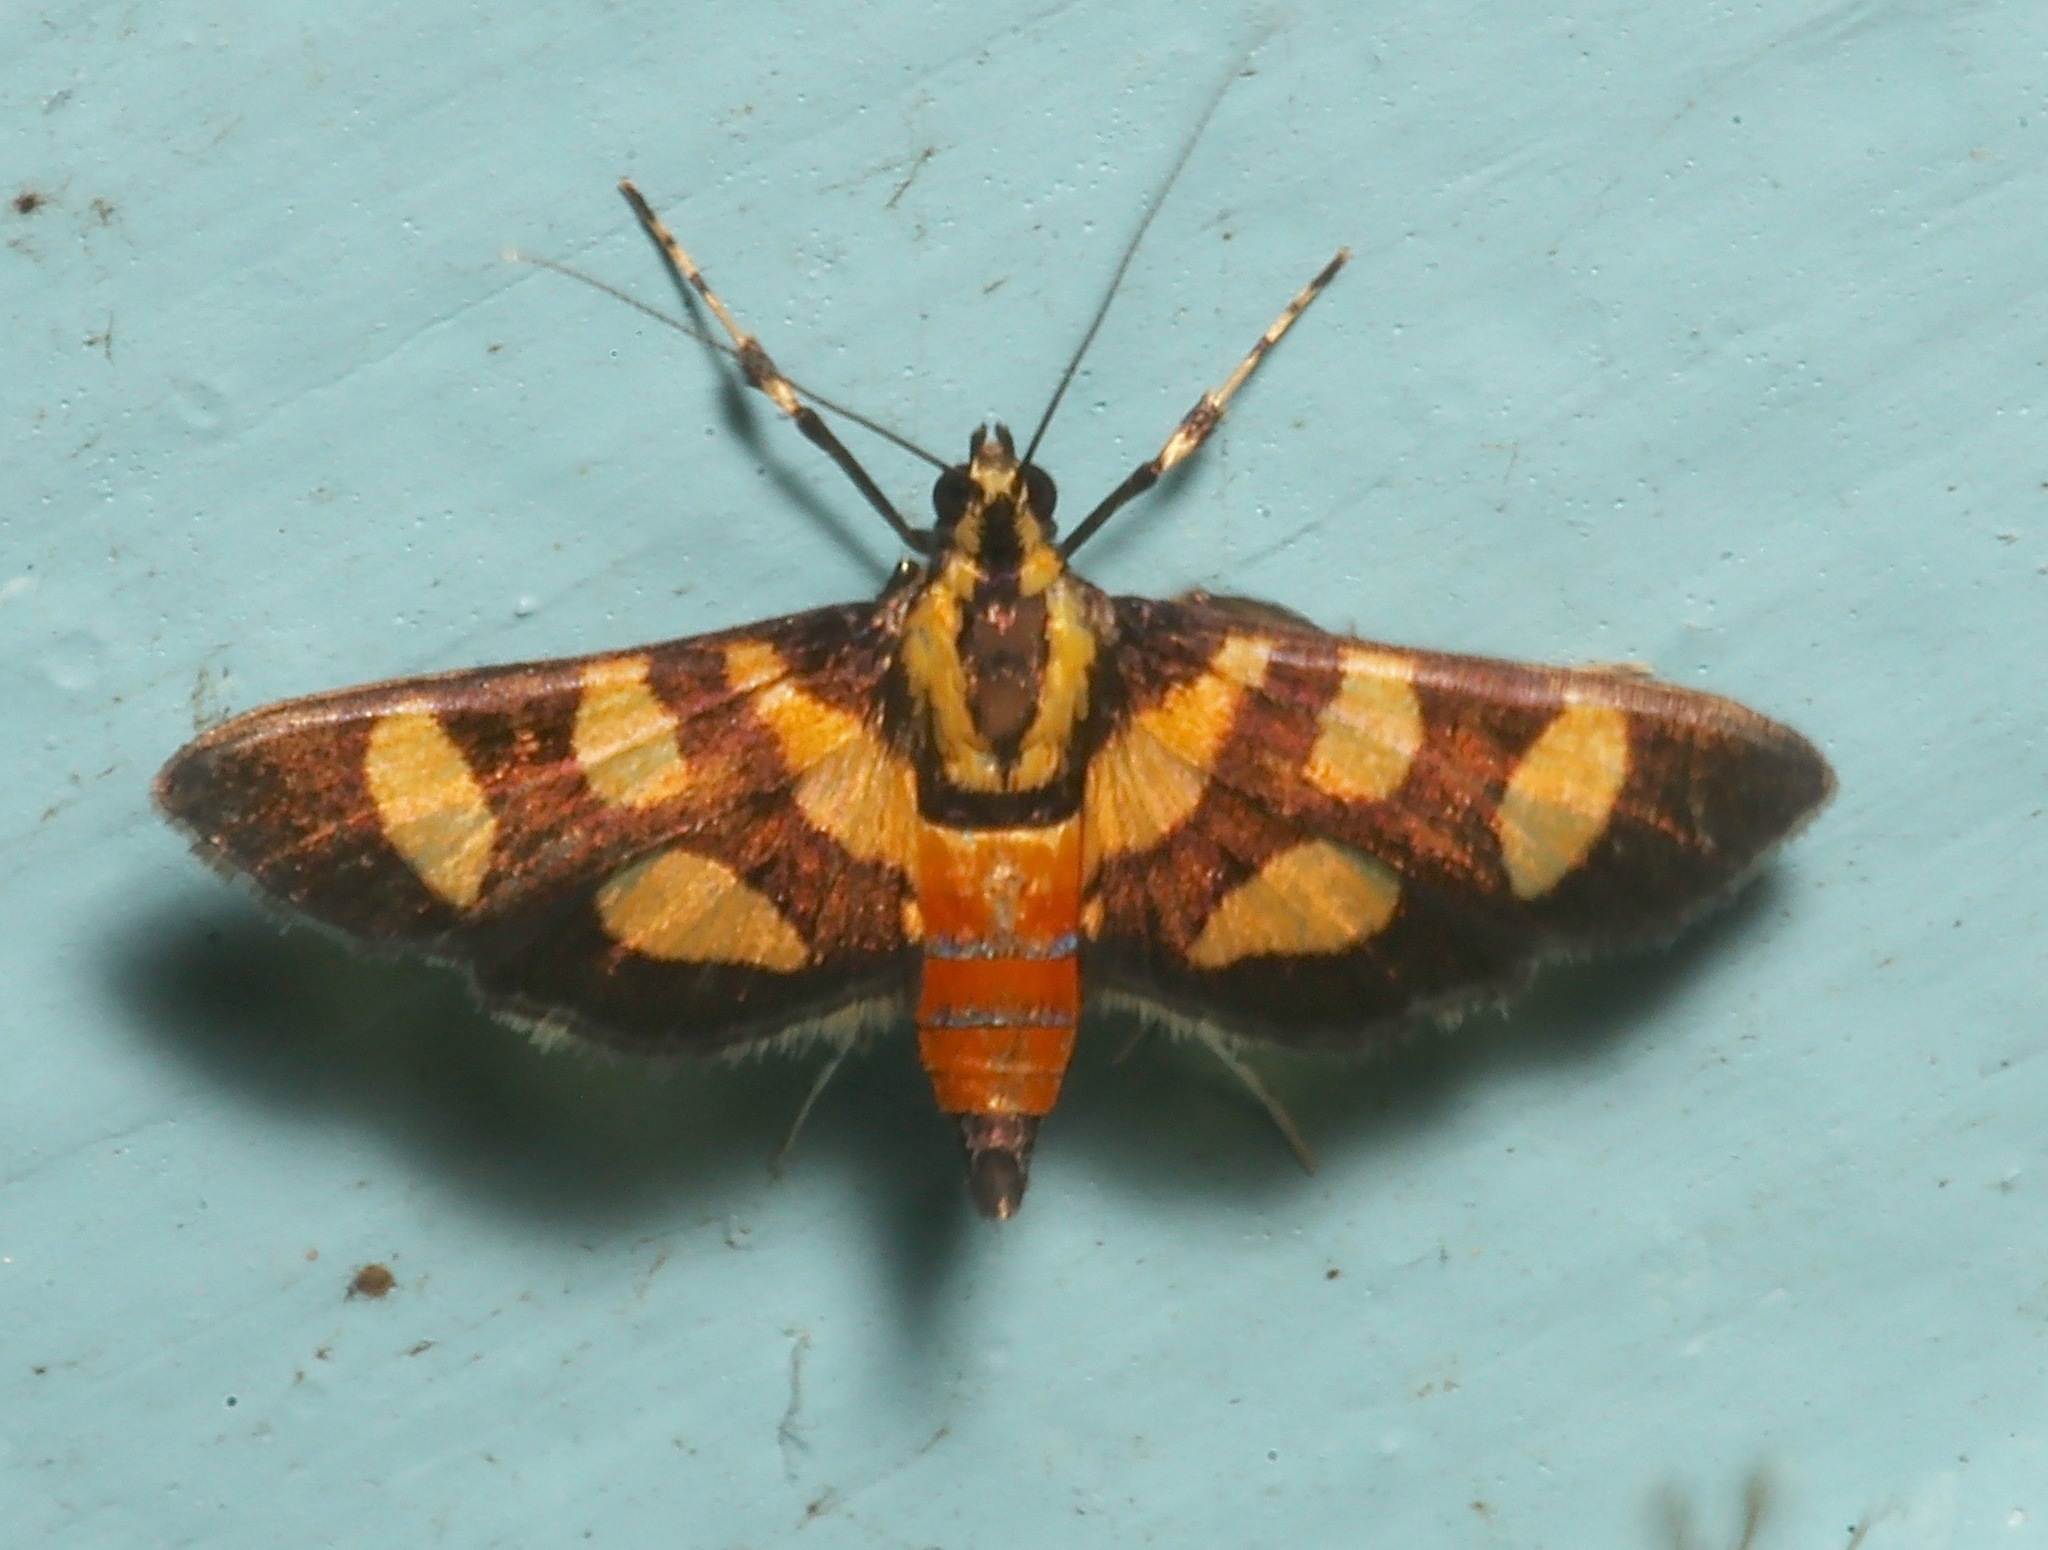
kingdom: Animalia
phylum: Arthropoda
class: Insecta
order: Lepidoptera
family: Crambidae
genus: Syngamia
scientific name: Syngamia florella
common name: Orange-spotted flower moth
